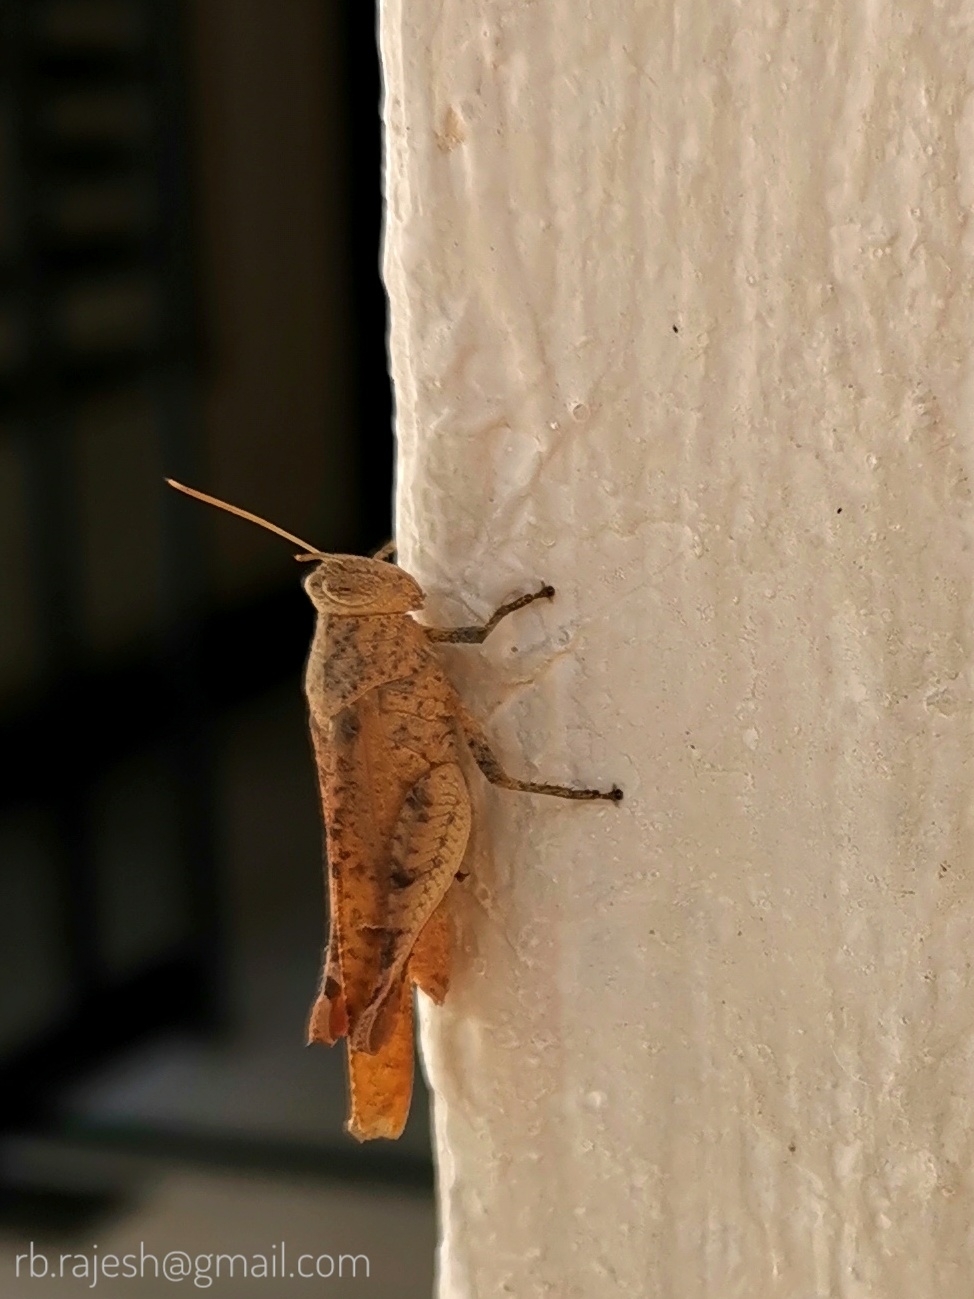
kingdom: Animalia
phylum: Arthropoda
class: Insecta
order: Orthoptera
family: Acrididae
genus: Eucoptacra
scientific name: Eucoptacra praemorsa
